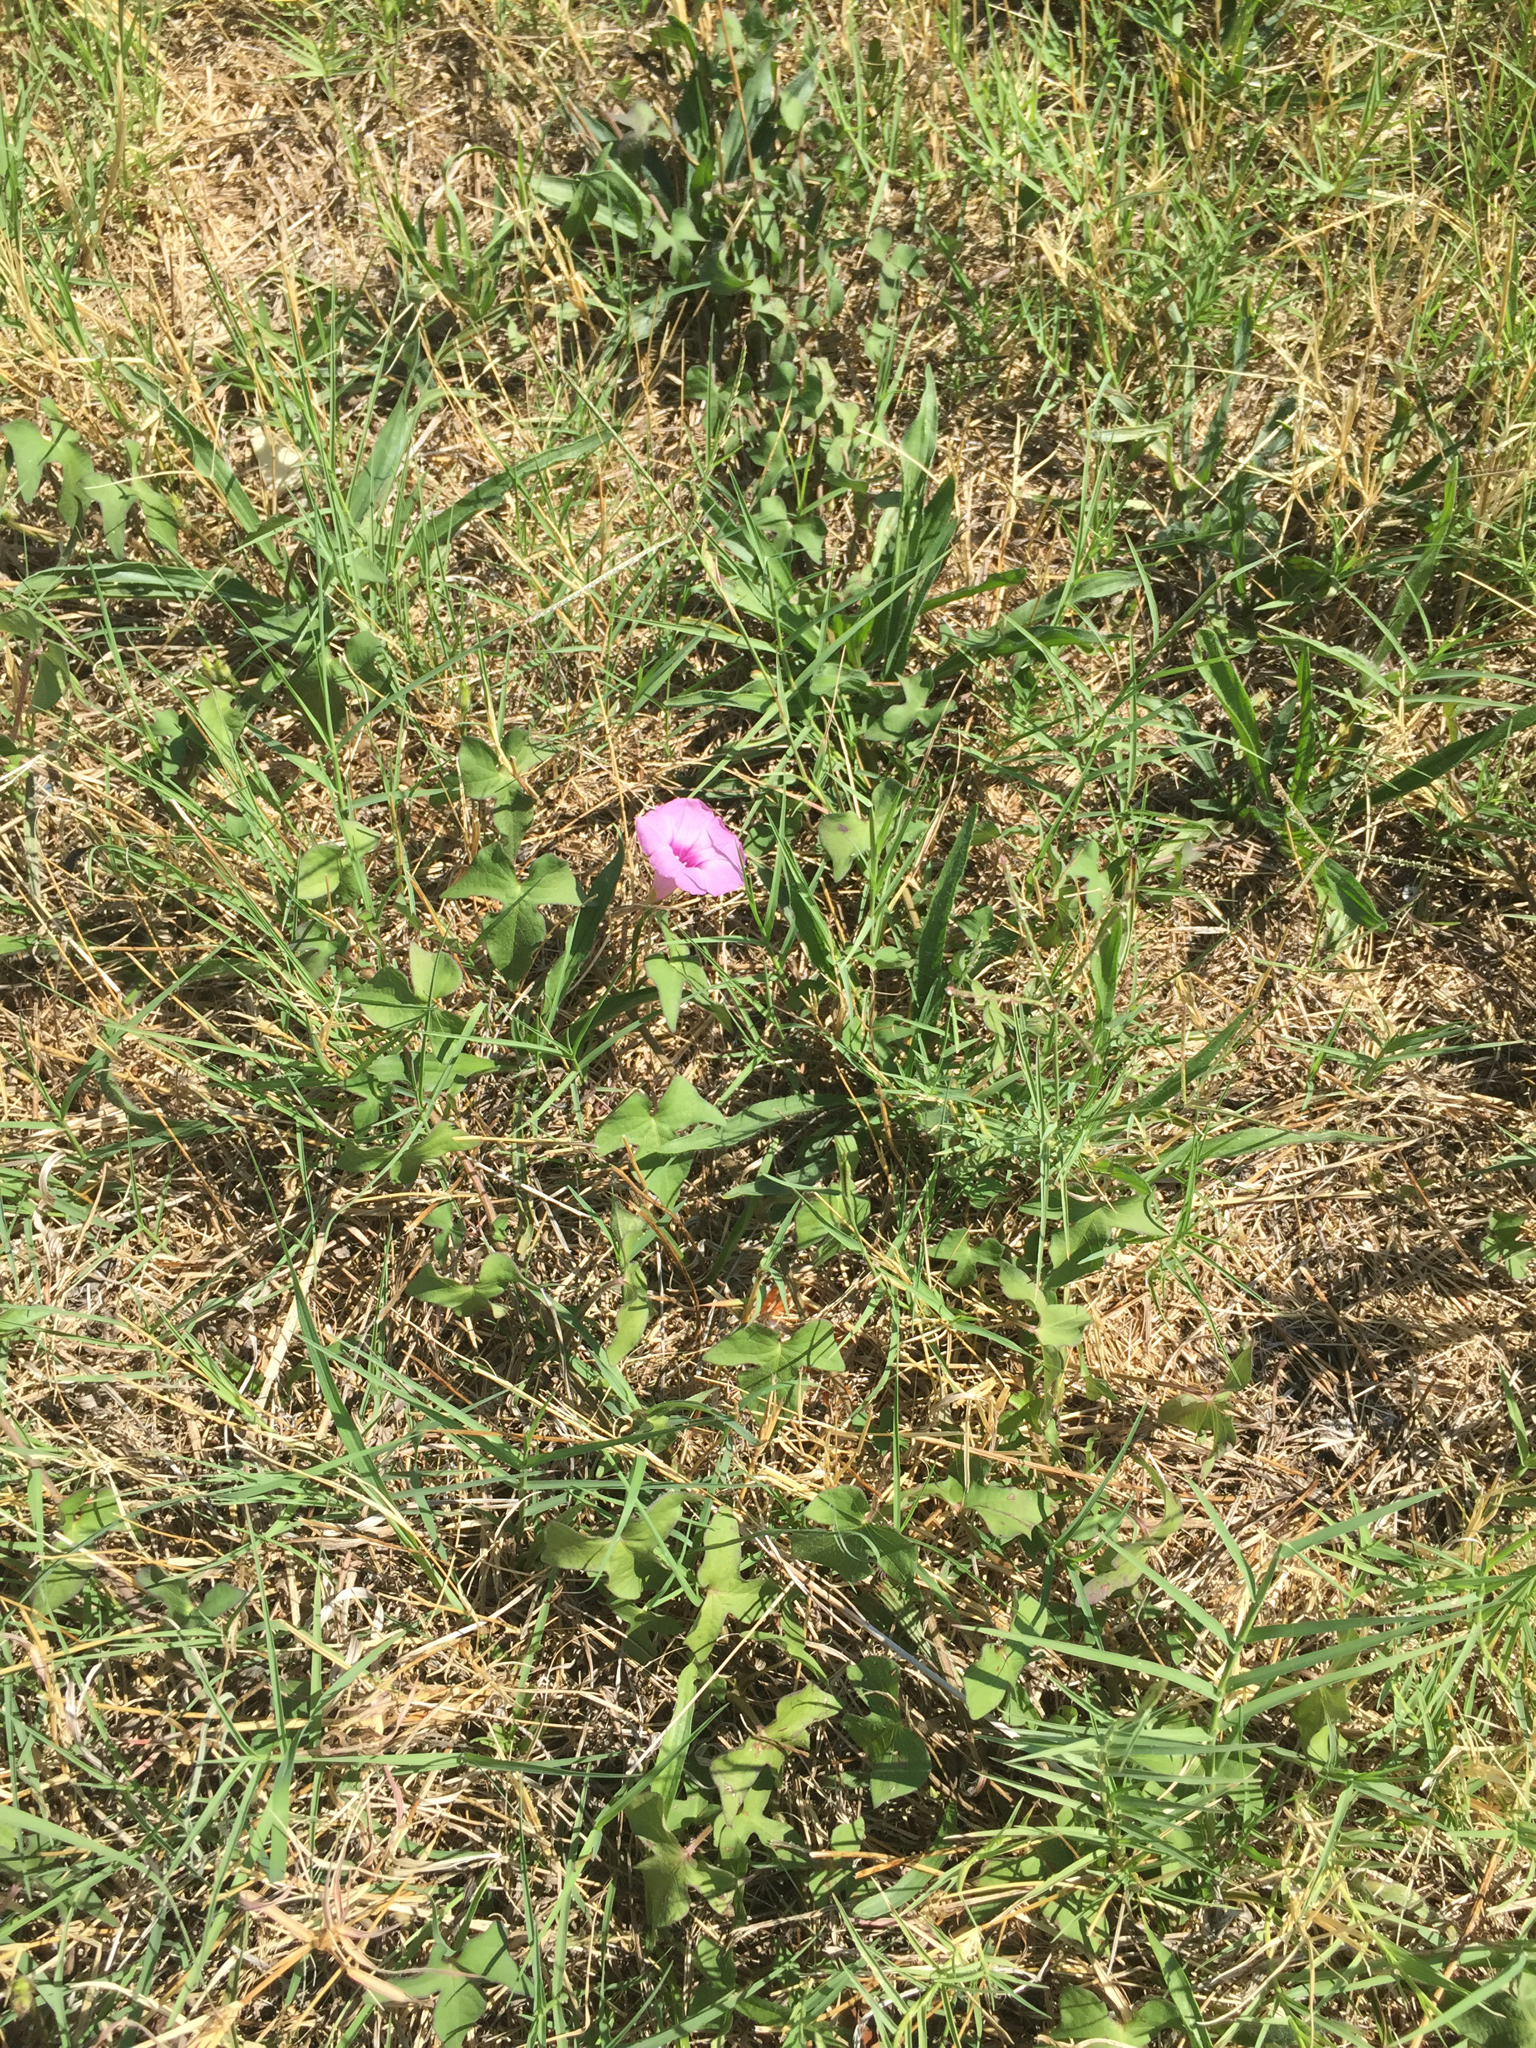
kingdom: Plantae
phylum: Tracheophyta
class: Magnoliopsida
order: Solanales
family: Convolvulaceae
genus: Ipomoea
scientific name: Ipomoea cordatotriloba
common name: Cotton morning glory
